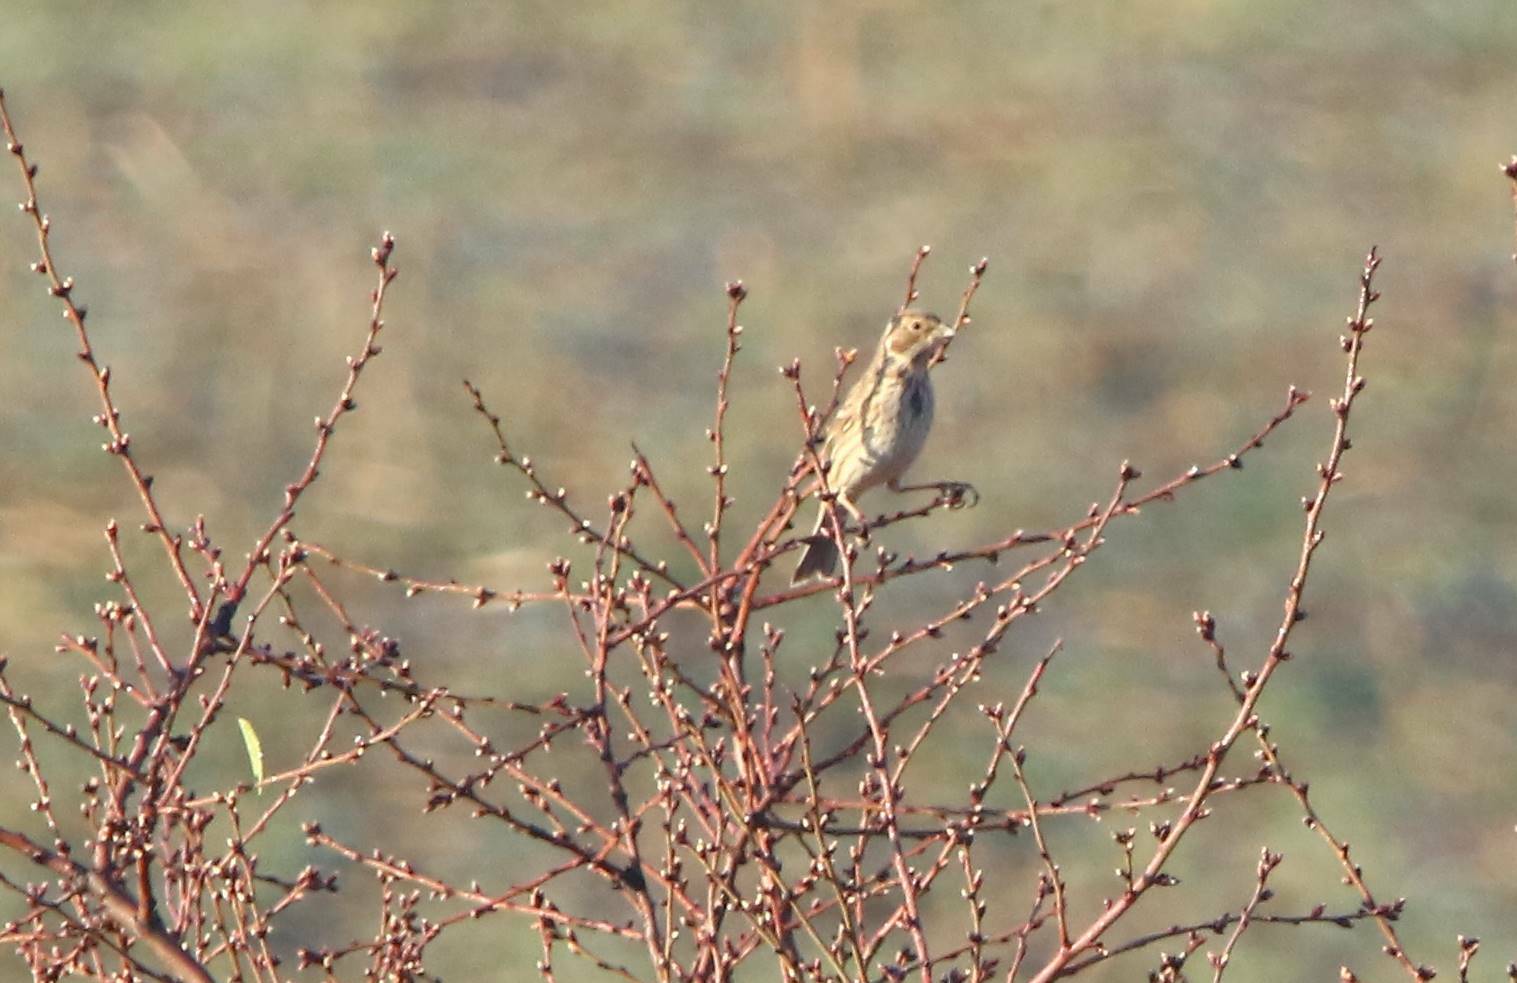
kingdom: Animalia
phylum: Chordata
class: Aves
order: Passeriformes
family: Emberizidae
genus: Emberiza
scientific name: Emberiza calandra
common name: Corn bunting
